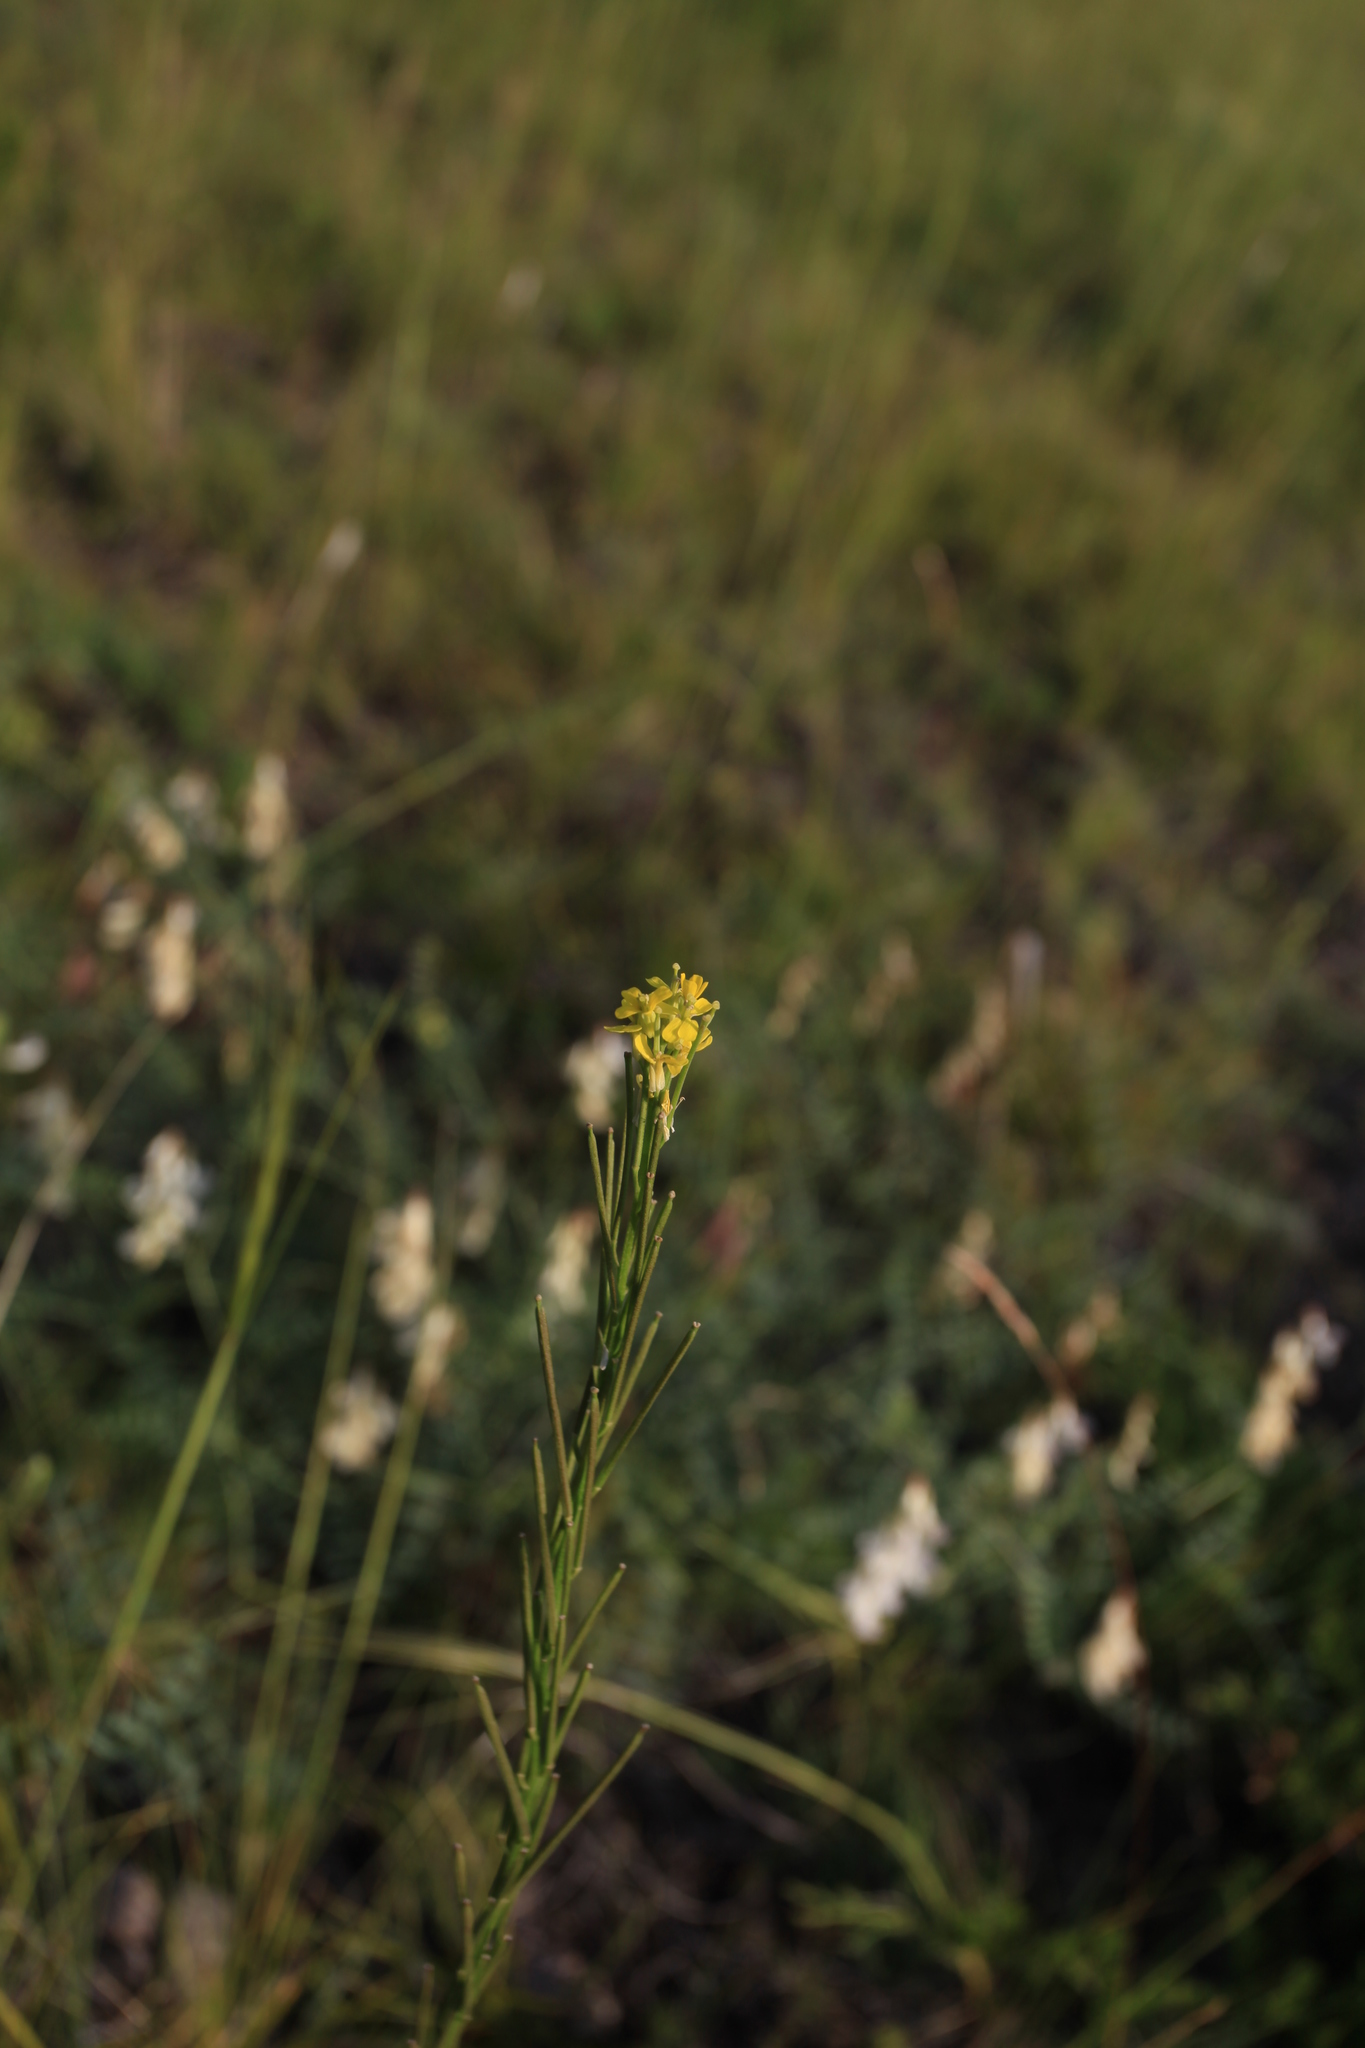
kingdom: Plantae
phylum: Tracheophyta
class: Magnoliopsida
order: Brassicales
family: Brassicaceae
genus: Erysimum
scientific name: Erysimum hieraciifolium
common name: European wallflower
